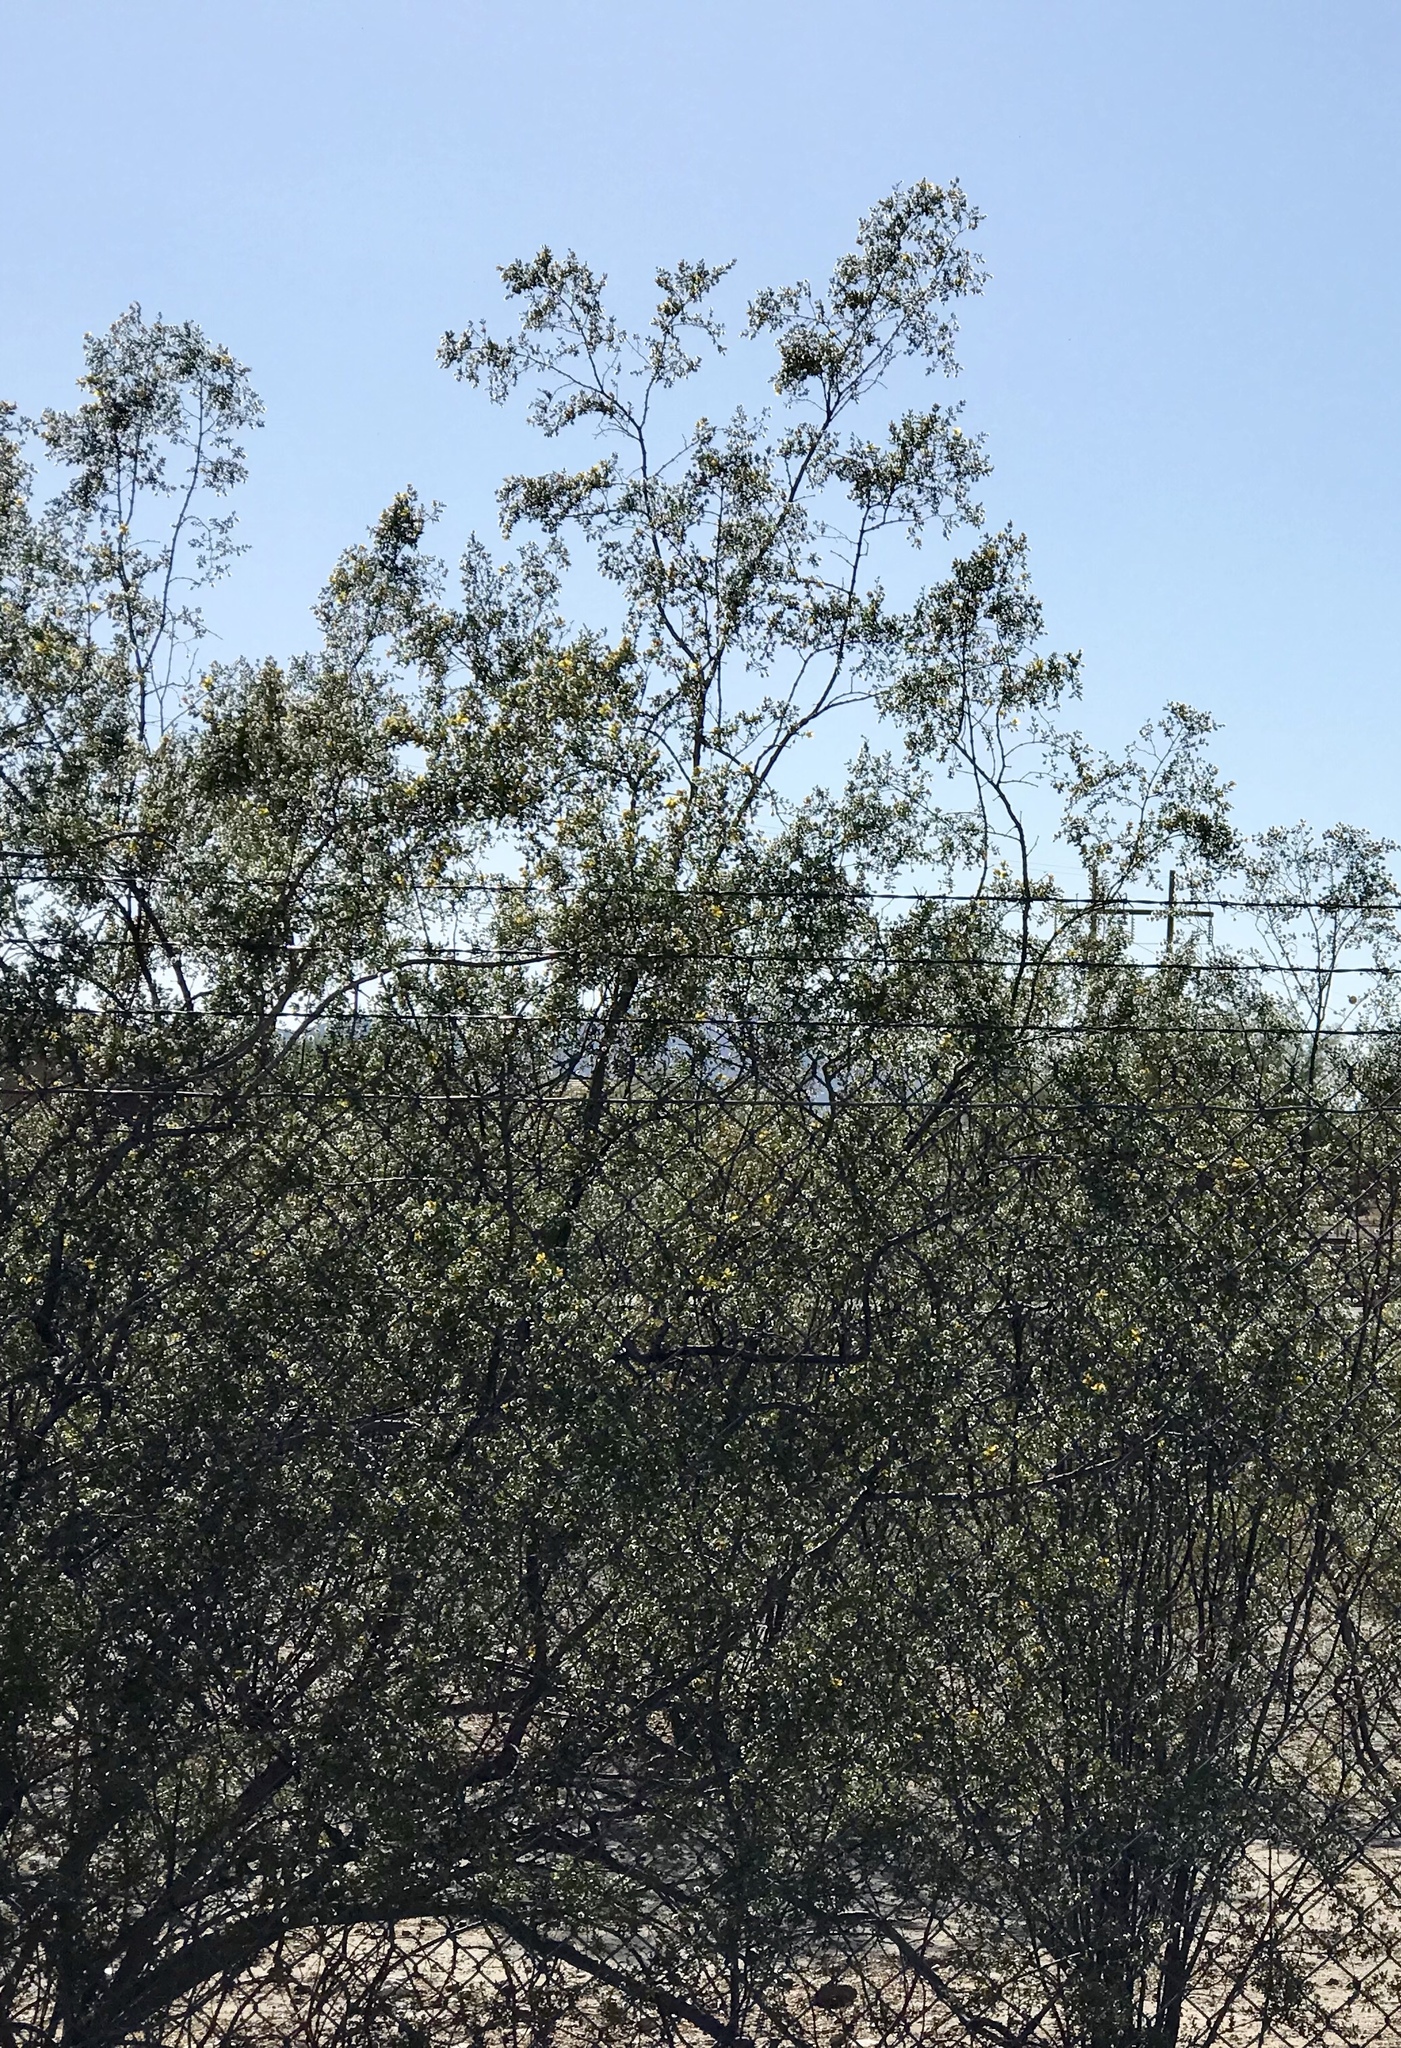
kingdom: Plantae
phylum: Tracheophyta
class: Magnoliopsida
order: Zygophyllales
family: Zygophyllaceae
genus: Larrea
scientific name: Larrea tridentata
